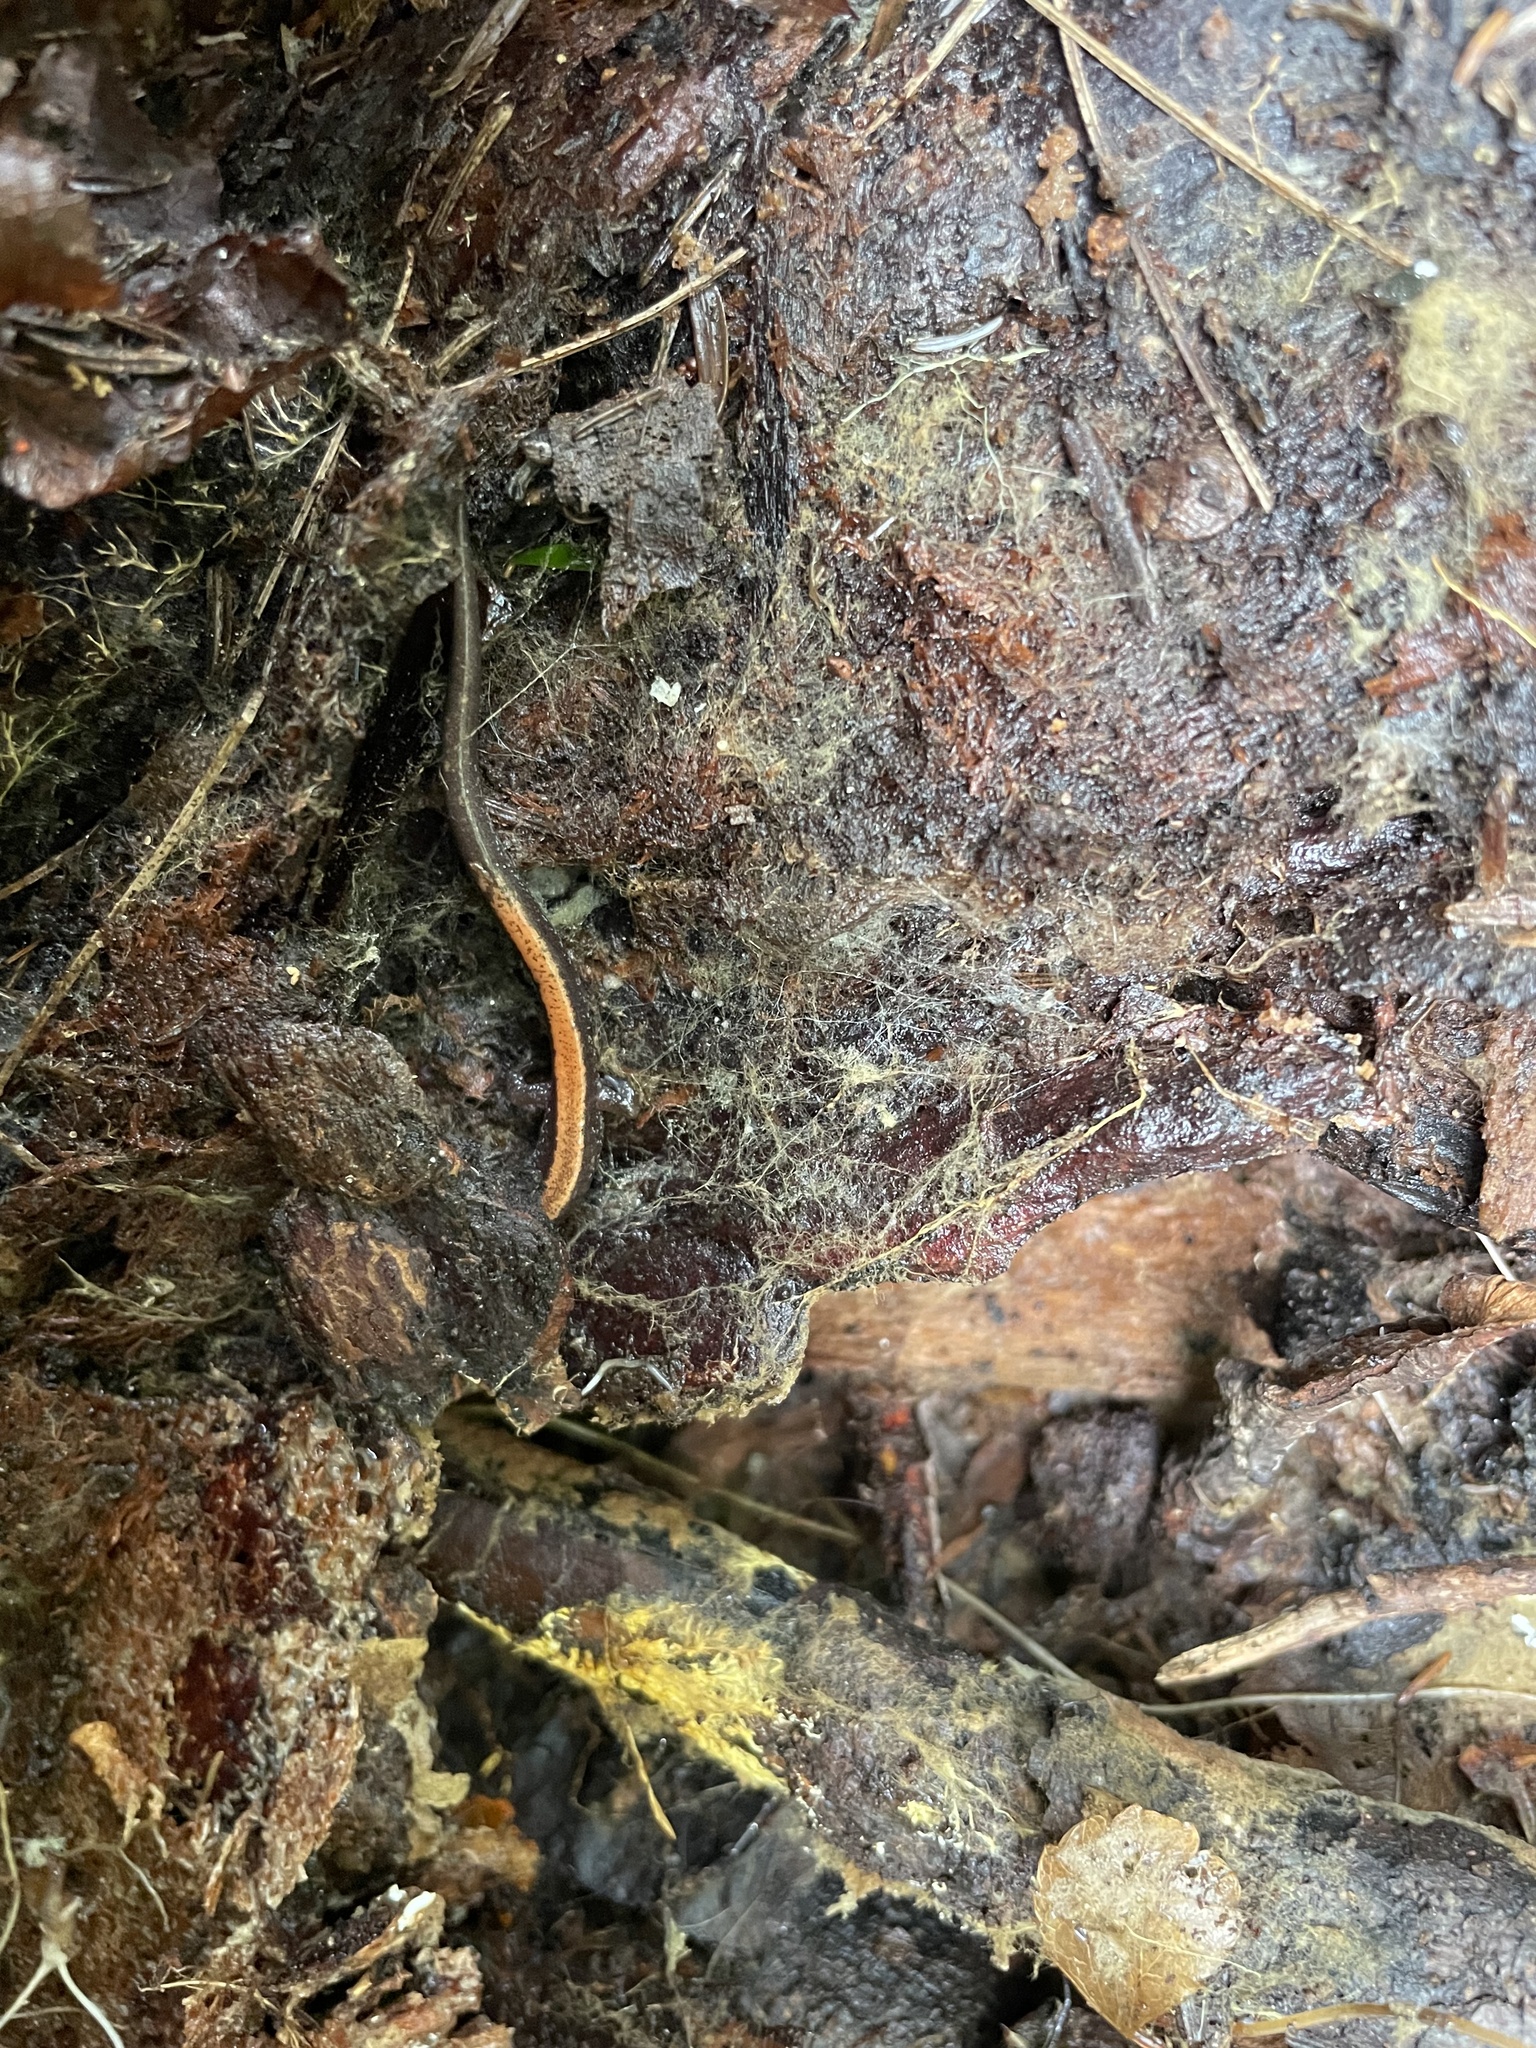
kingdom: Animalia
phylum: Chordata
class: Amphibia
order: Caudata
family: Plethodontidae
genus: Plethodon
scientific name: Plethodon cinereus
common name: Redback salamander
